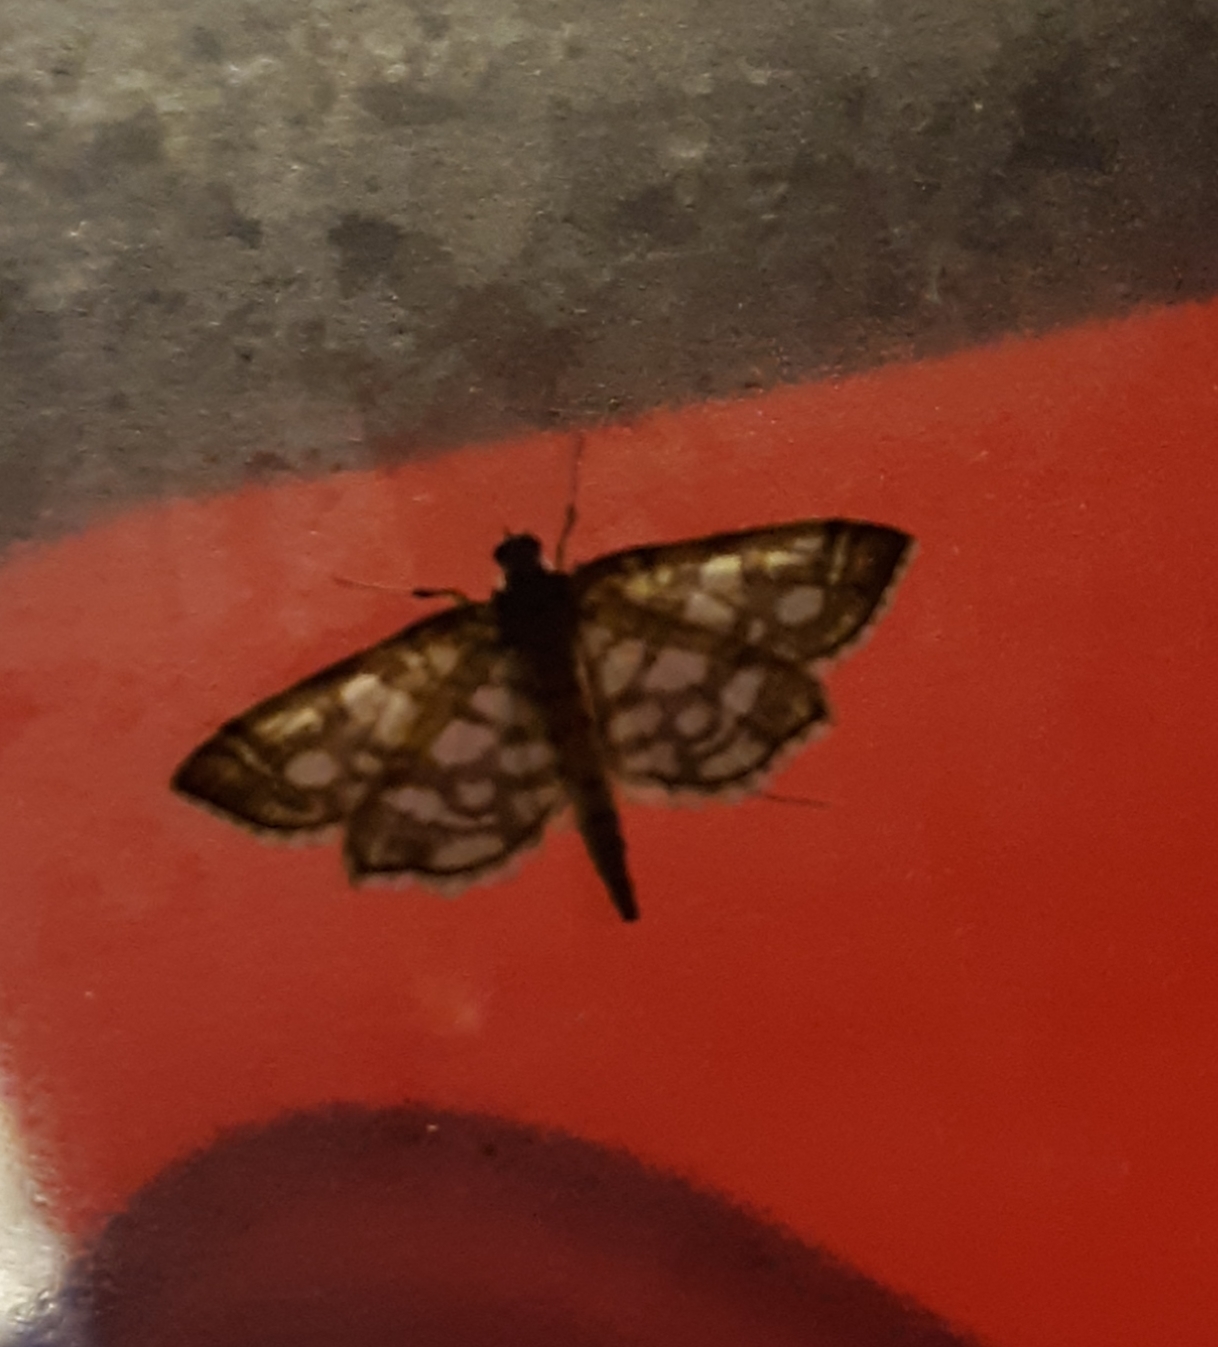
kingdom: Animalia
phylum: Arthropoda
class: Insecta
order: Lepidoptera
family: Crambidae
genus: Lygropia
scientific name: Lygropia rivulalis
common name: Bog lygropia moth
